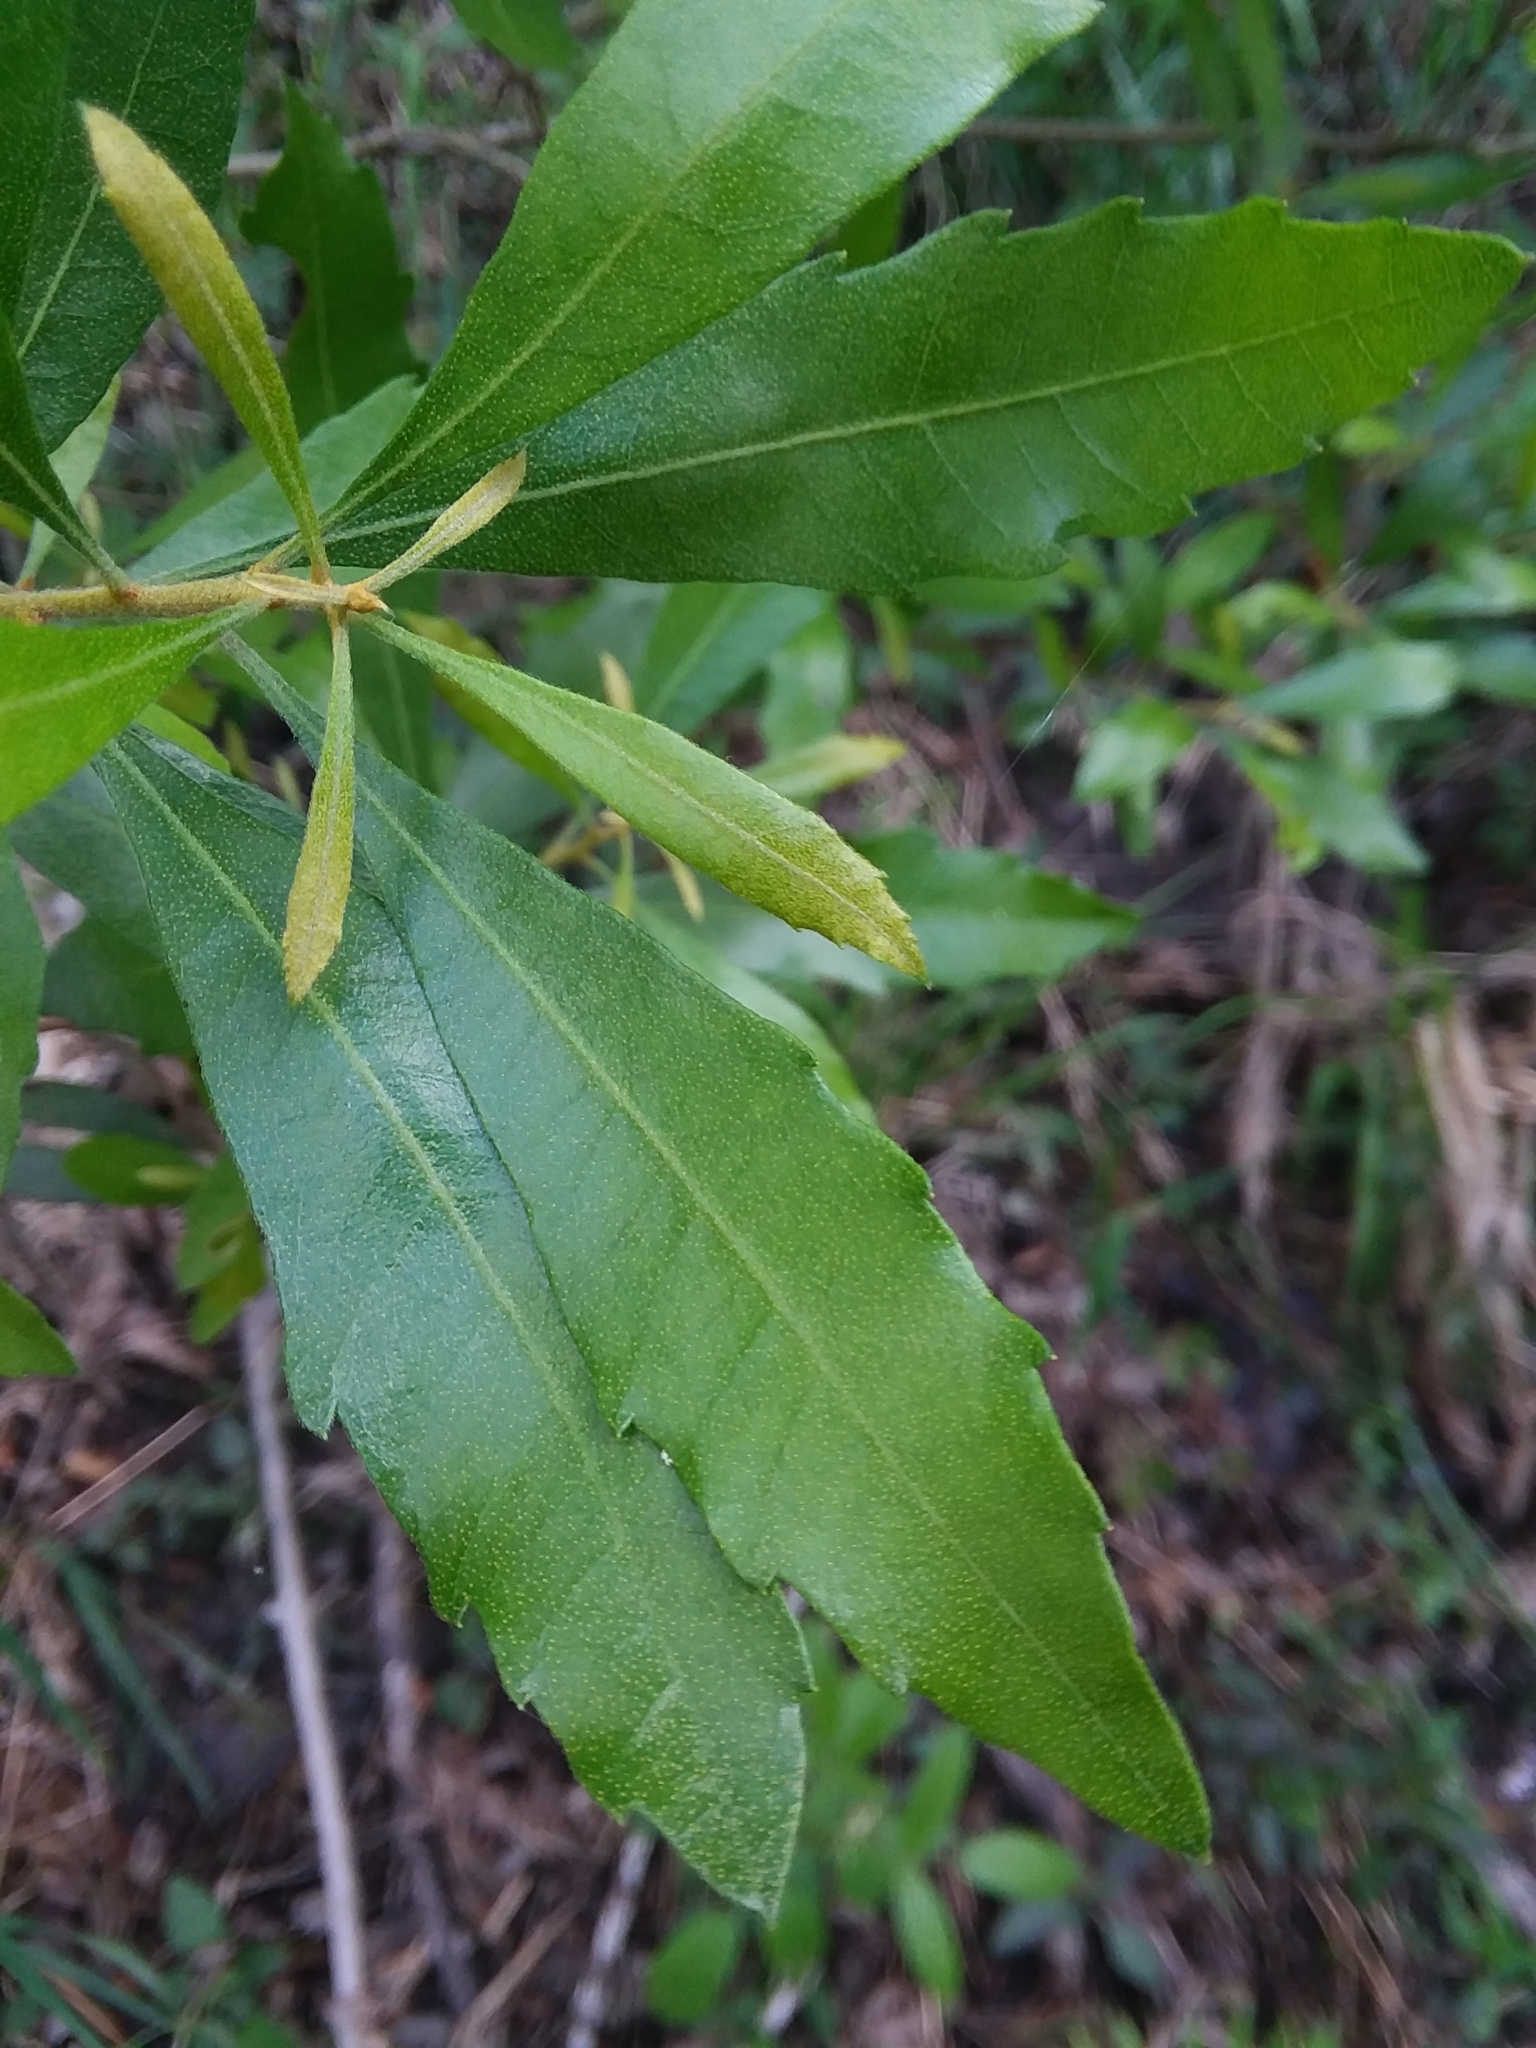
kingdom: Plantae
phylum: Tracheophyta
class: Magnoliopsida
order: Fagales
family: Myricaceae
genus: Morella
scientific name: Morella cerifera
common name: Wax myrtle
